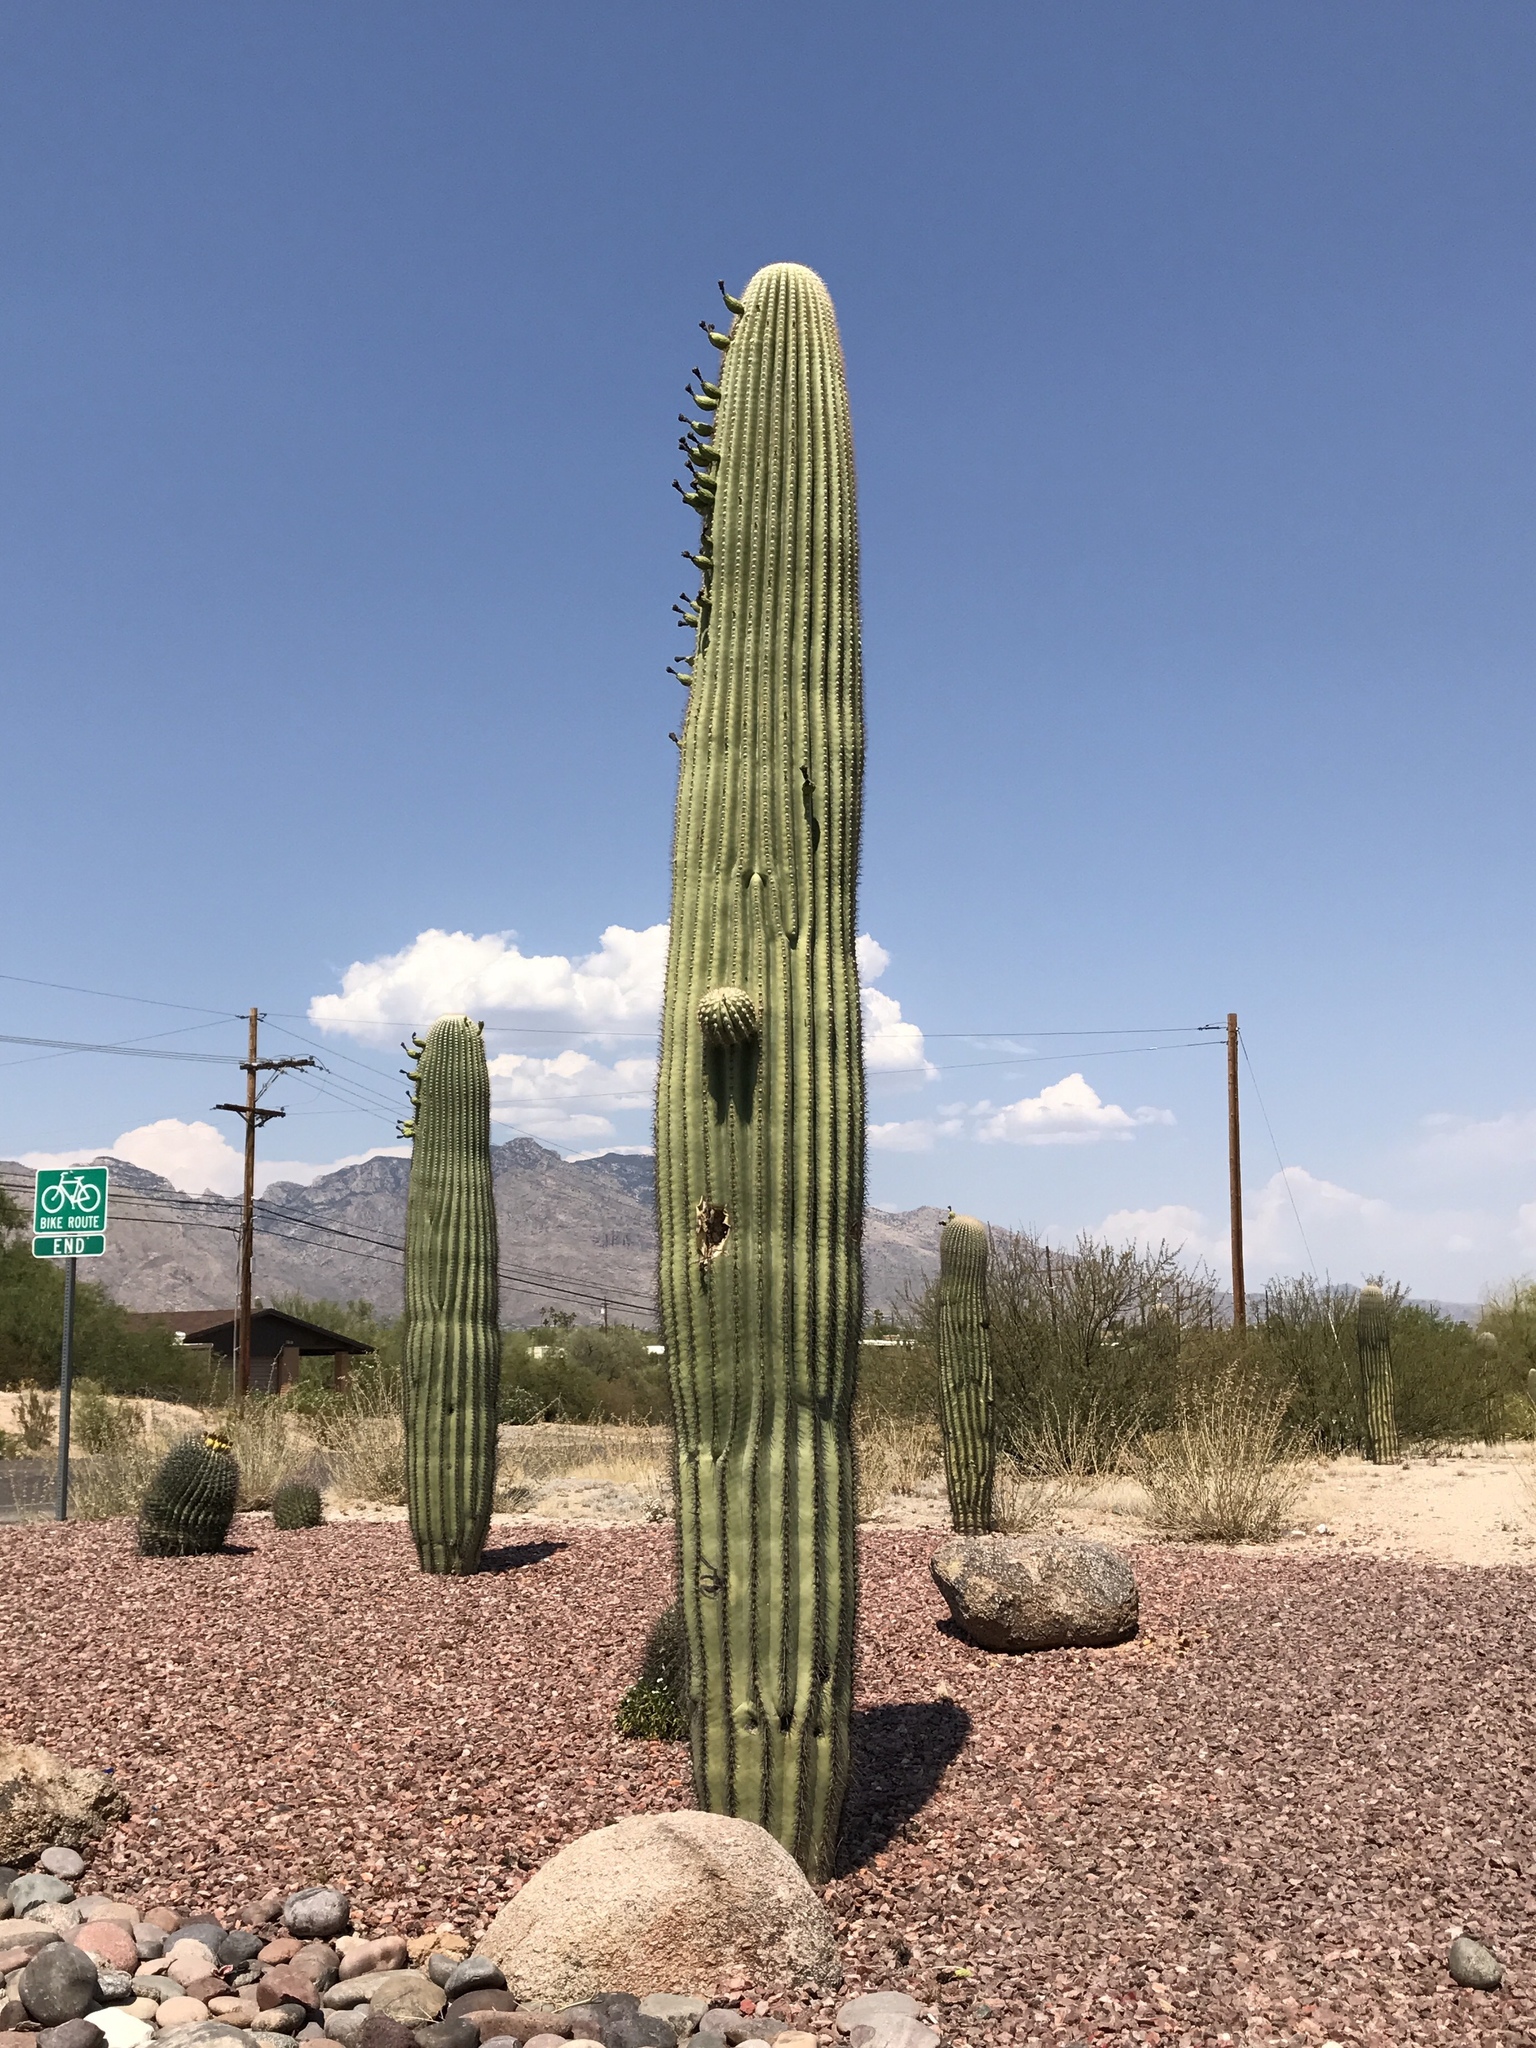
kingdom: Plantae
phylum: Tracheophyta
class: Magnoliopsida
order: Caryophyllales
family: Cactaceae
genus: Carnegiea
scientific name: Carnegiea gigantea
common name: Saguaro
